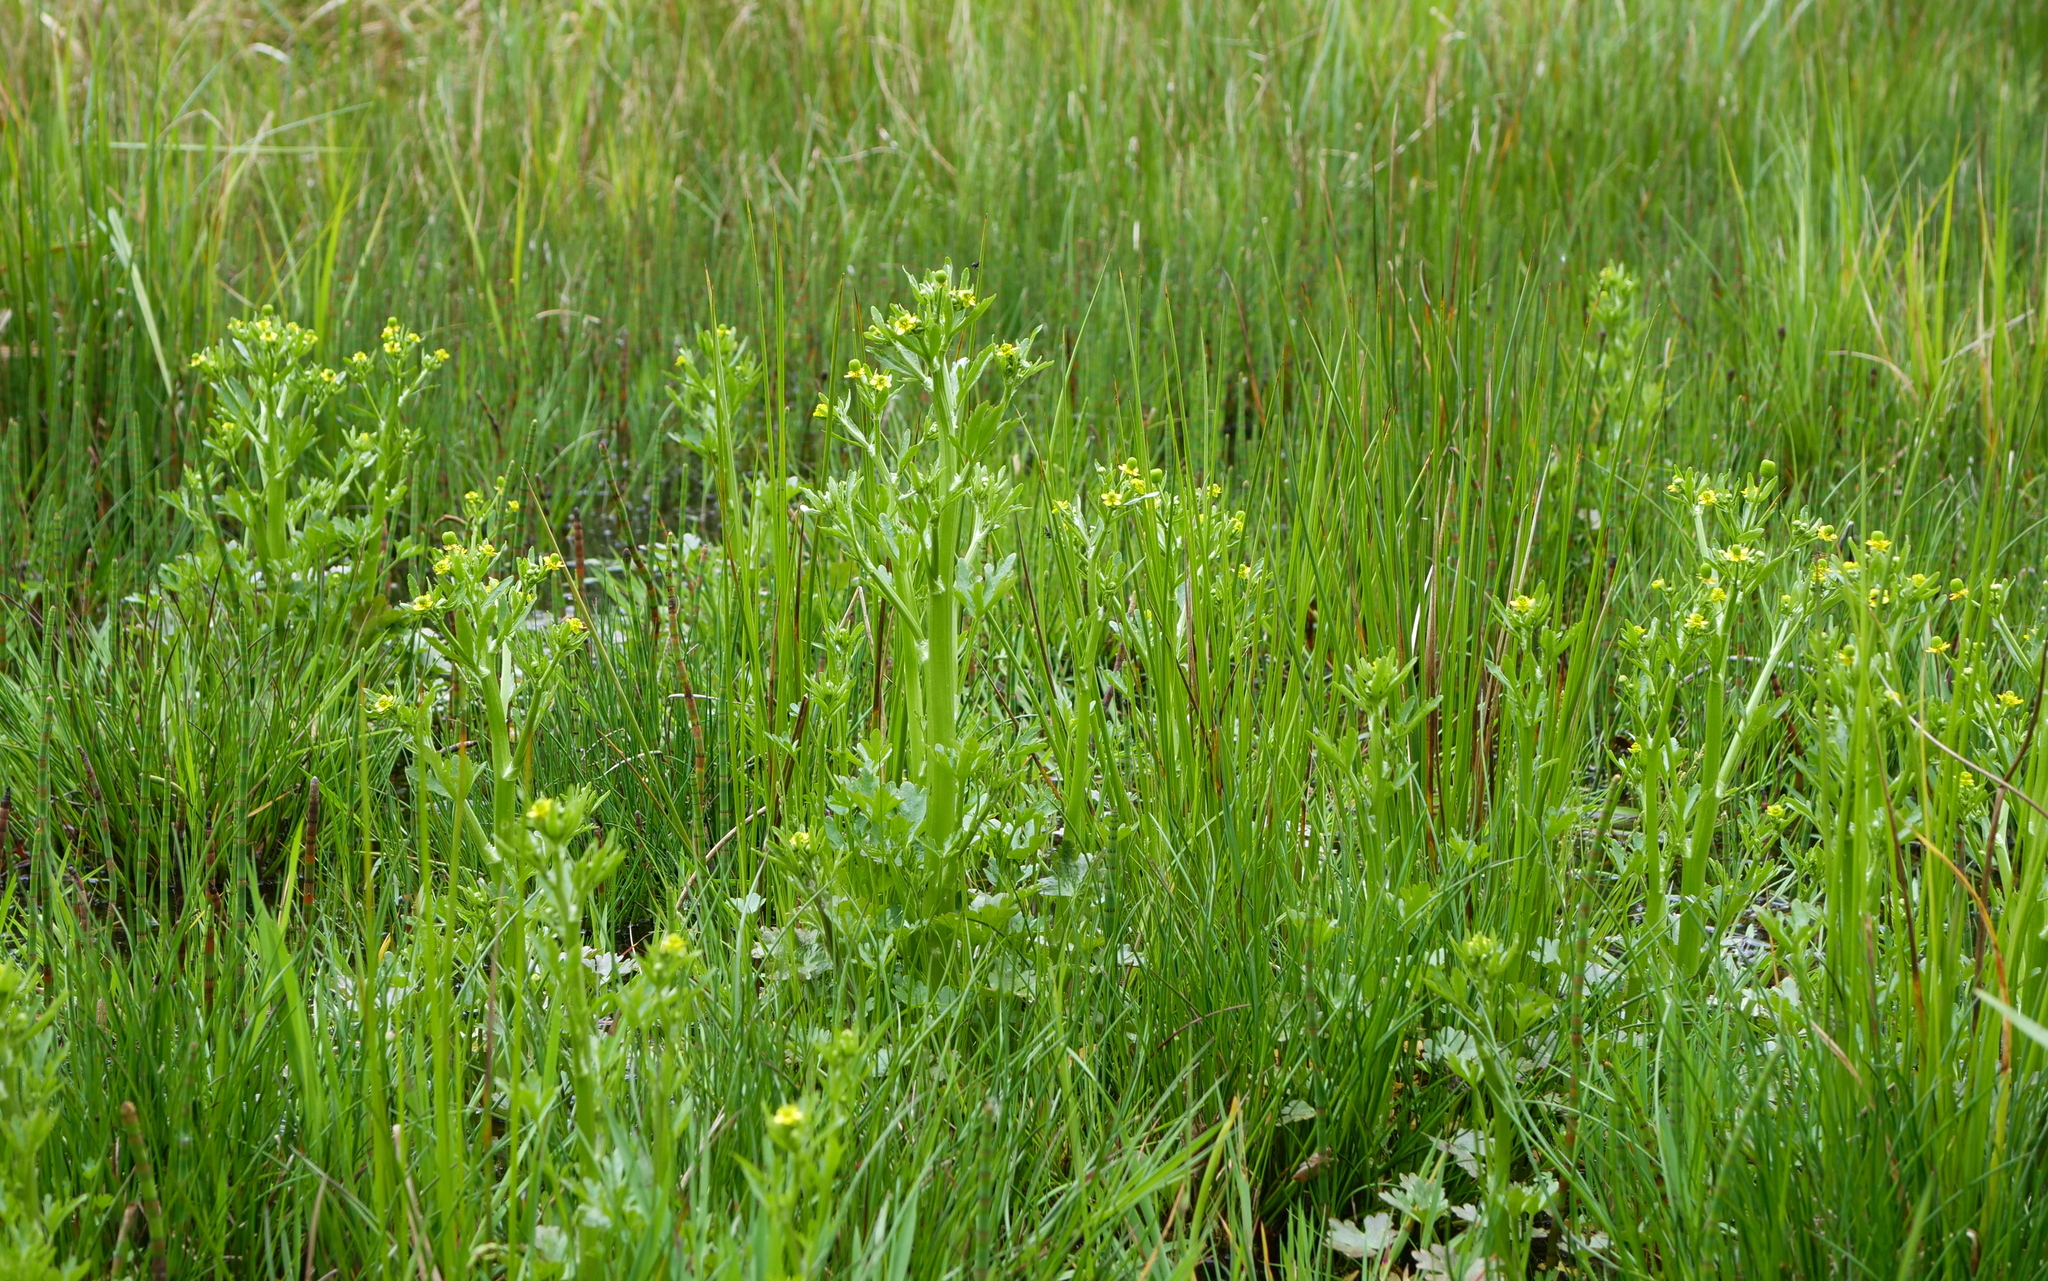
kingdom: Plantae
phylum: Tracheophyta
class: Magnoliopsida
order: Ranunculales
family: Ranunculaceae
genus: Ranunculus
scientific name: Ranunculus sceleratus
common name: Celery-leaved buttercup
